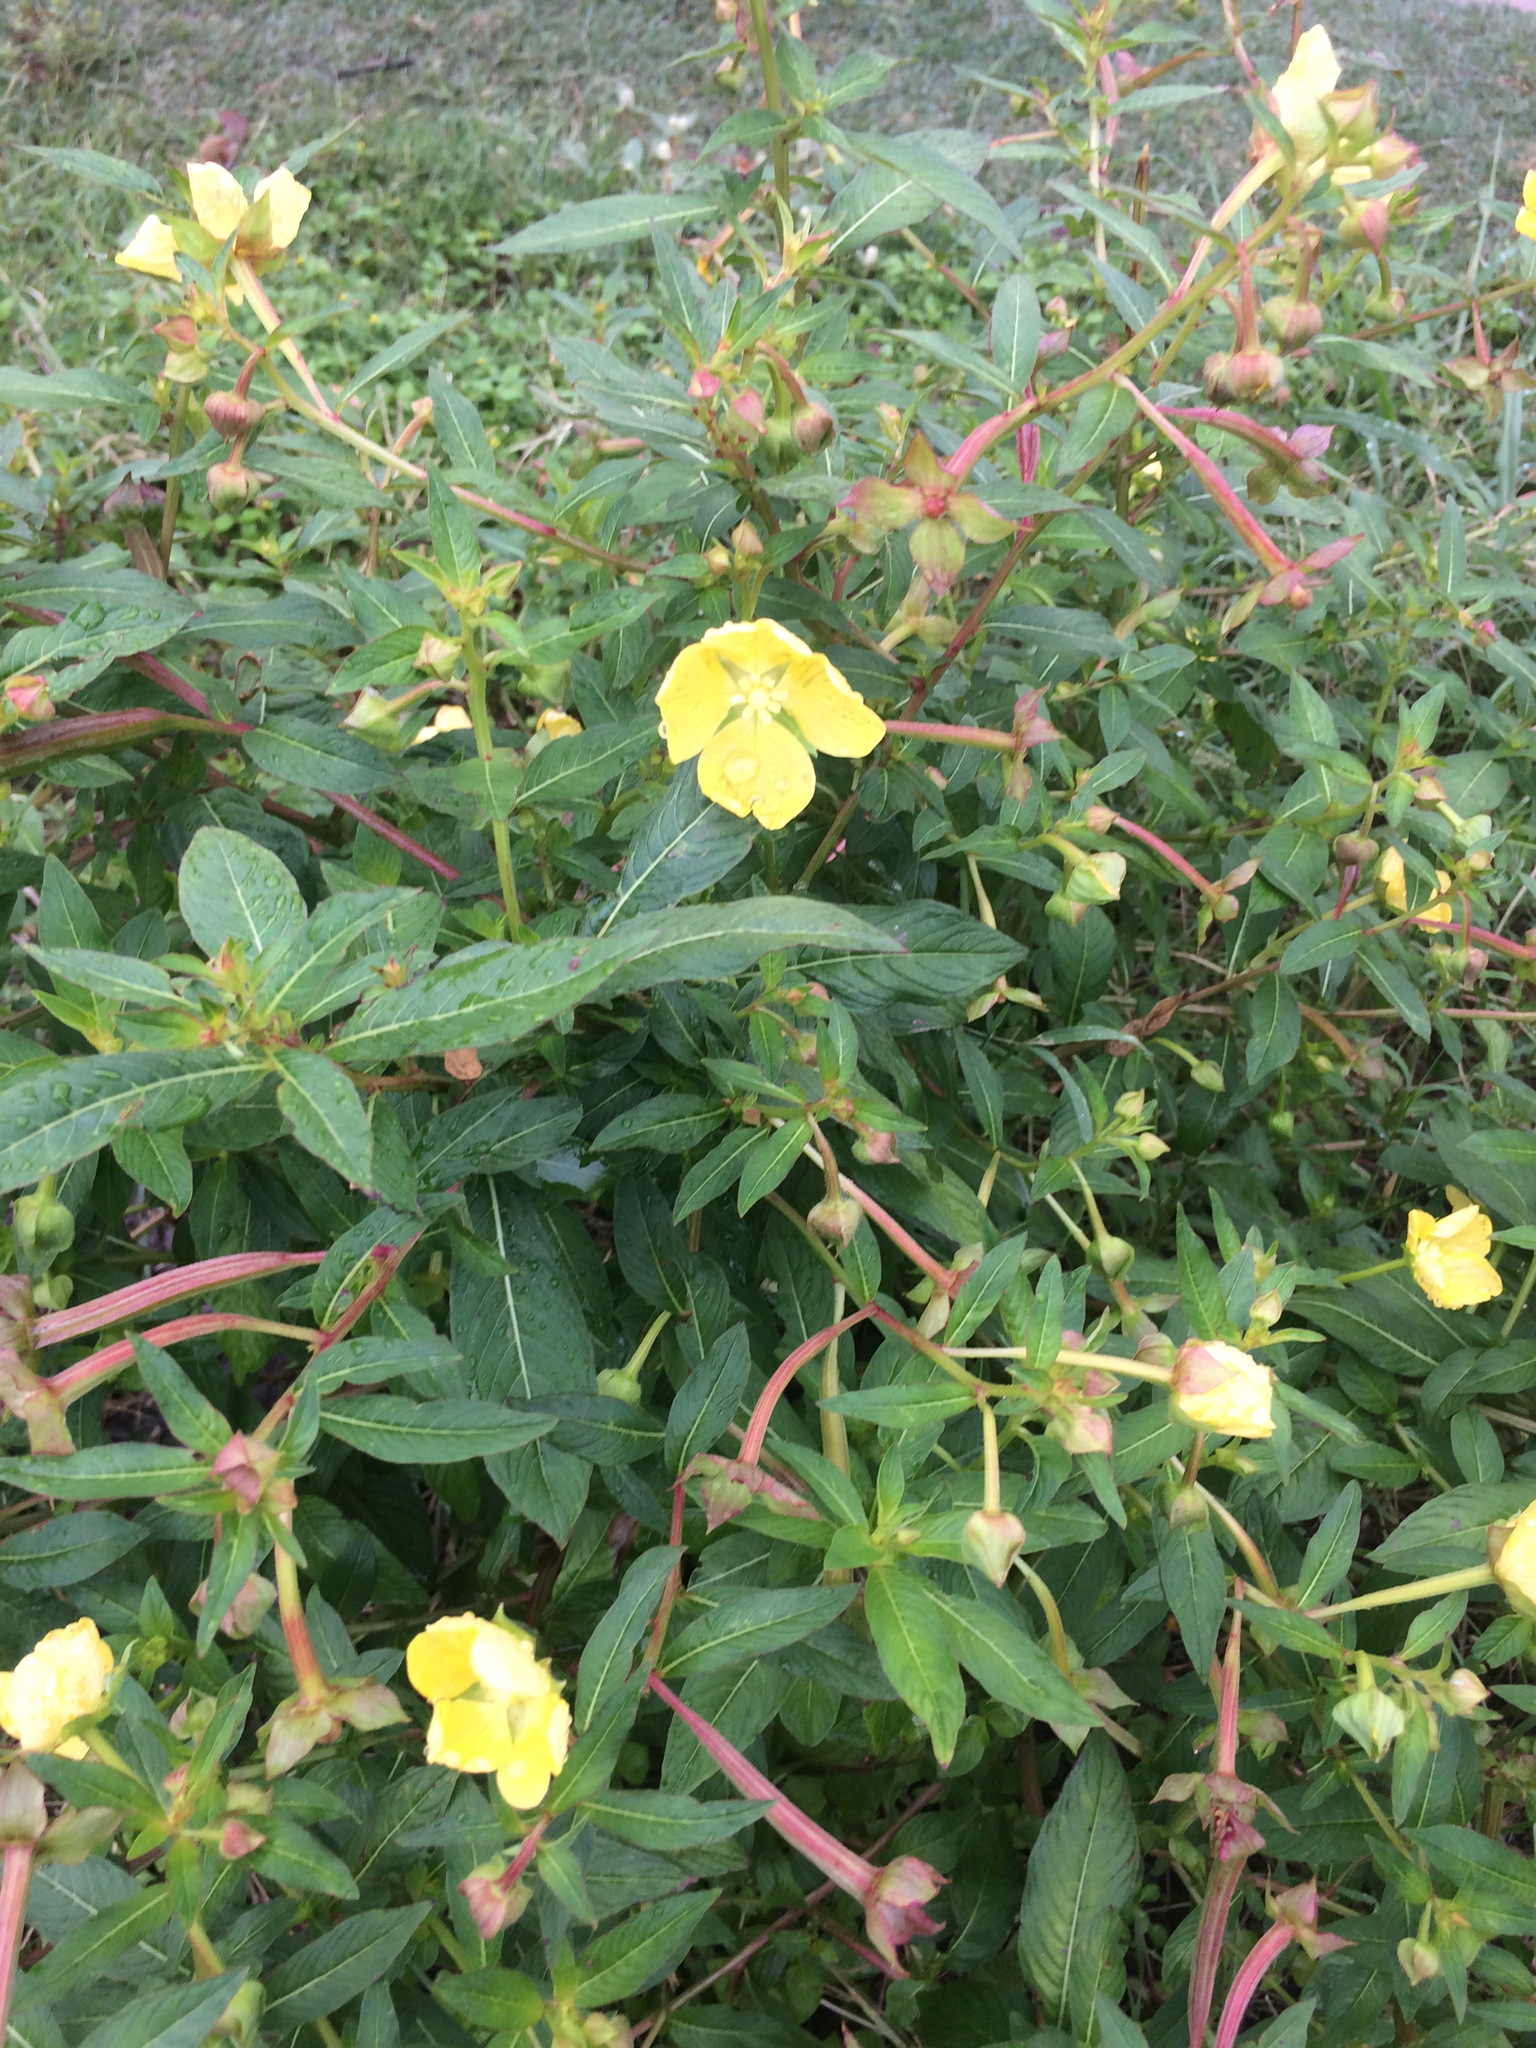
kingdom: Plantae
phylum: Tracheophyta
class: Magnoliopsida
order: Myrtales
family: Onagraceae
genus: Ludwigia
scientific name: Ludwigia octovalvis
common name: Water-primrose
